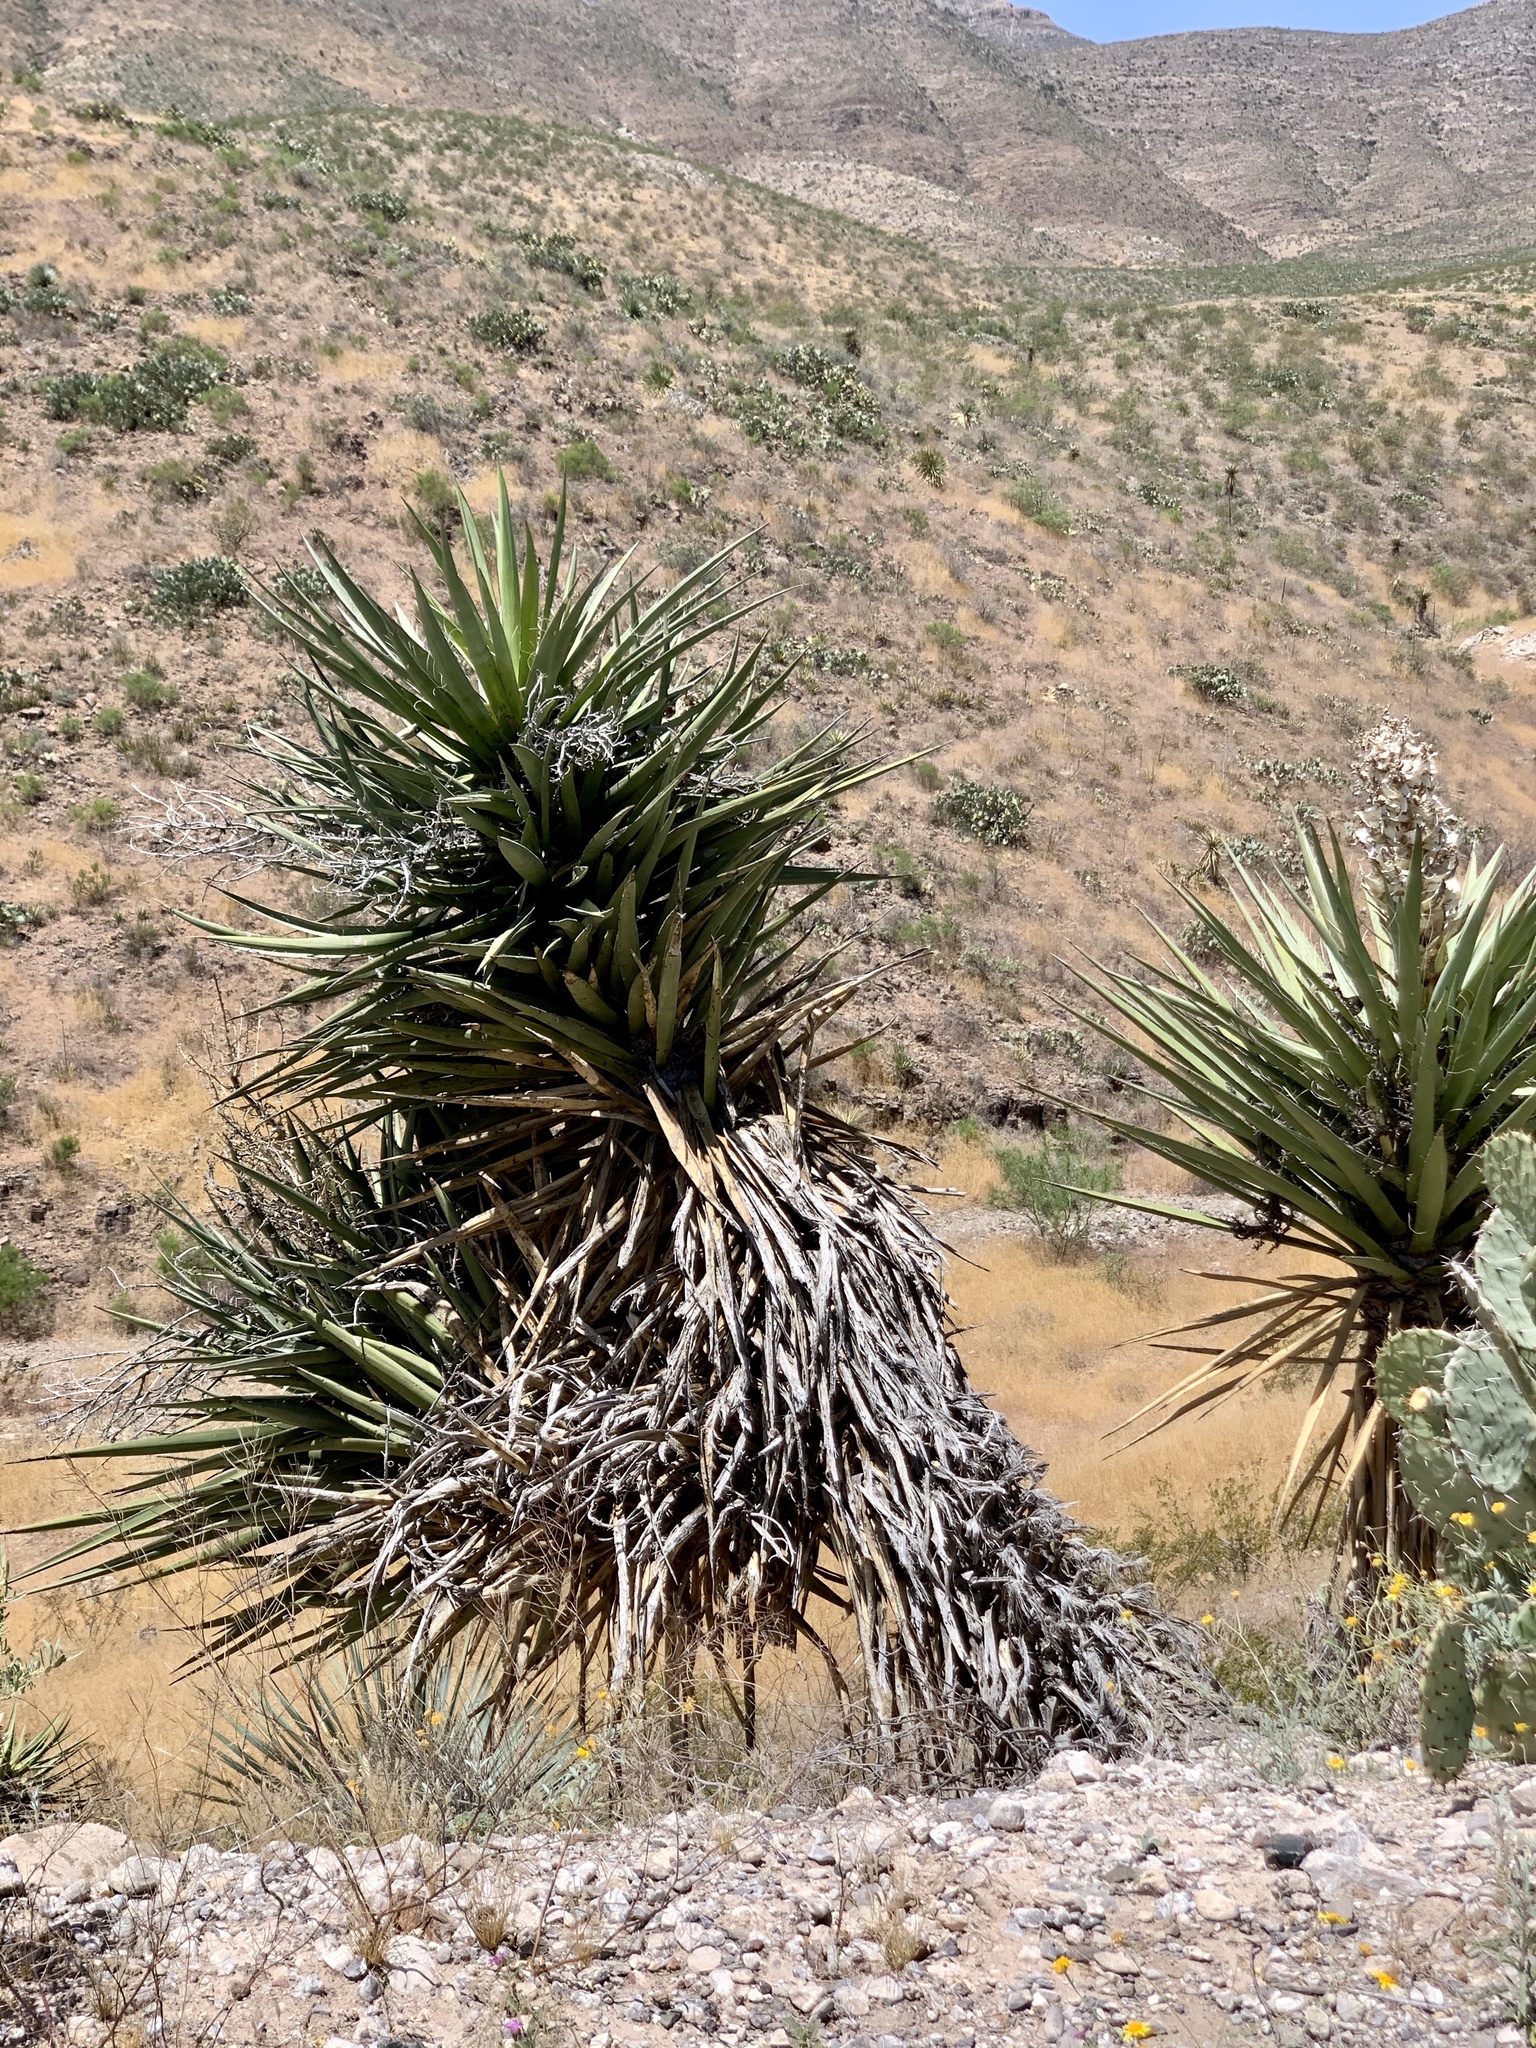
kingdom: Plantae
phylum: Tracheophyta
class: Liliopsida
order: Asparagales
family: Asparagaceae
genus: Yucca
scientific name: Yucca treculiana
